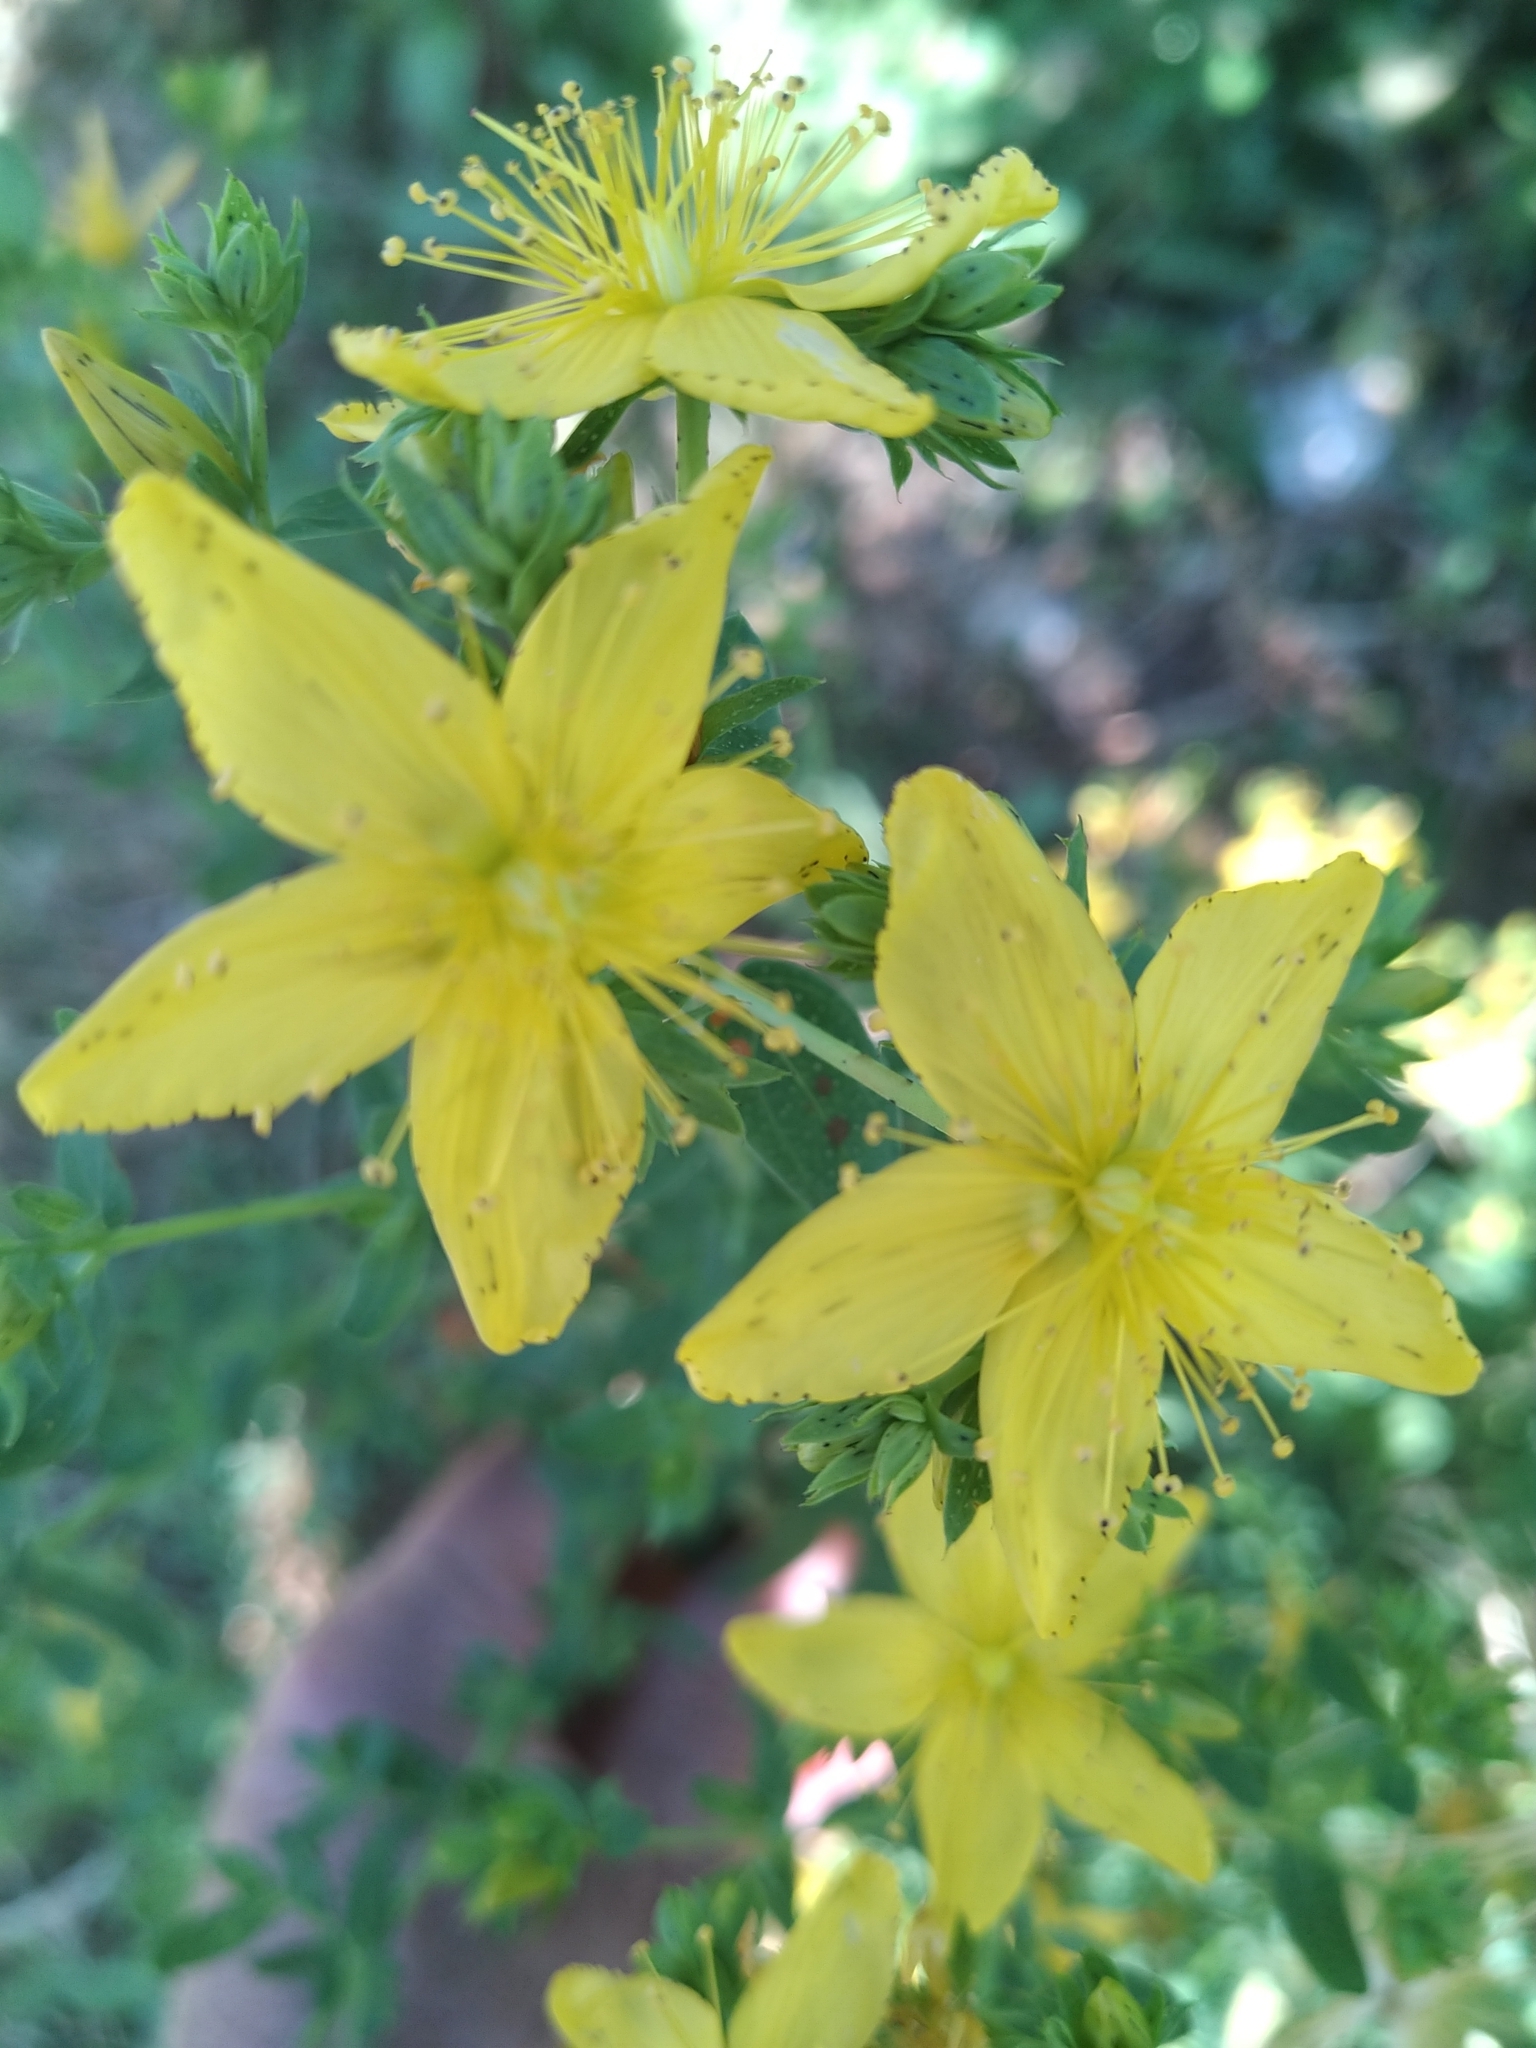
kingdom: Plantae
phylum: Tracheophyta
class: Magnoliopsida
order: Malpighiales
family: Hypericaceae
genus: Hypericum
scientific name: Hypericum perforatum
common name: Common st. johnswort
